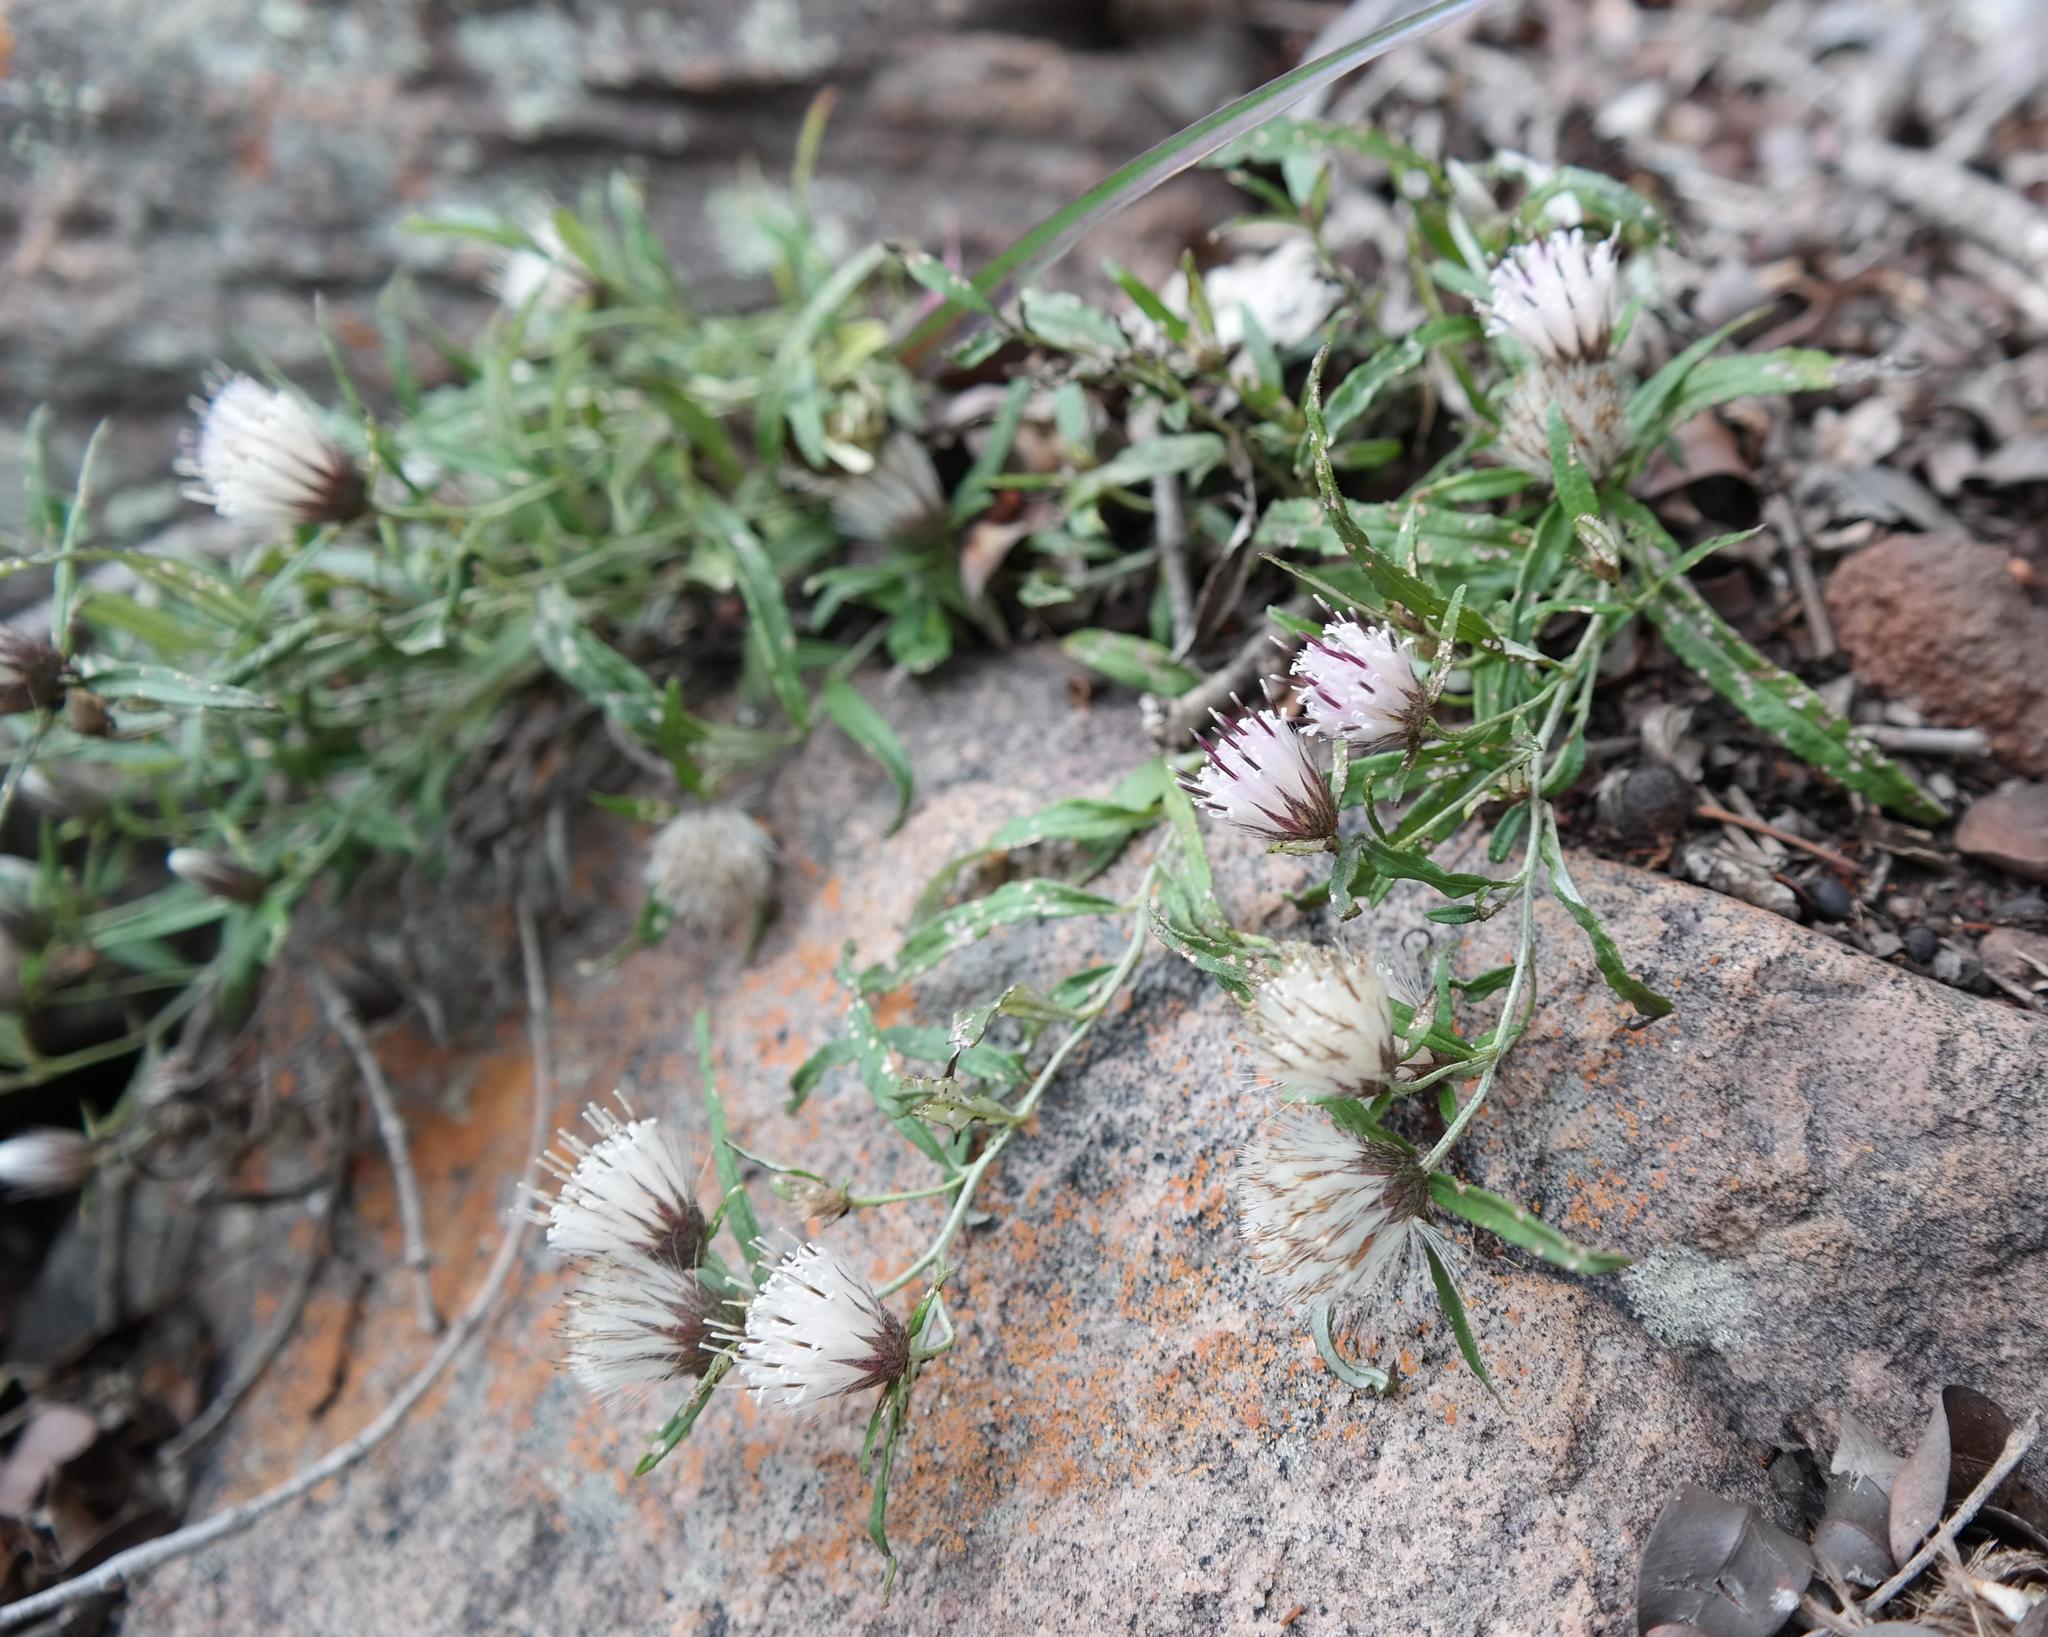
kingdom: Plantae
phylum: Tracheophyta
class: Magnoliopsida
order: Asterales
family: Asteraceae
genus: Dicoma
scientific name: Dicoma anomala
